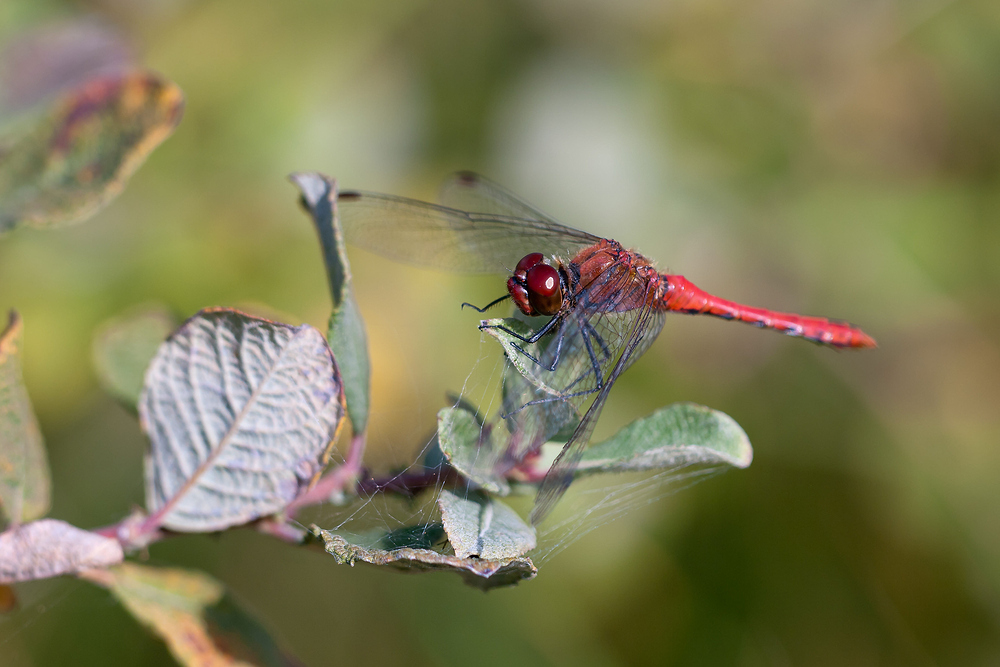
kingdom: Animalia
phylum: Arthropoda
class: Insecta
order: Odonata
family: Libellulidae
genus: Sympetrum
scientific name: Sympetrum sanguineum
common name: Ruddy darter
